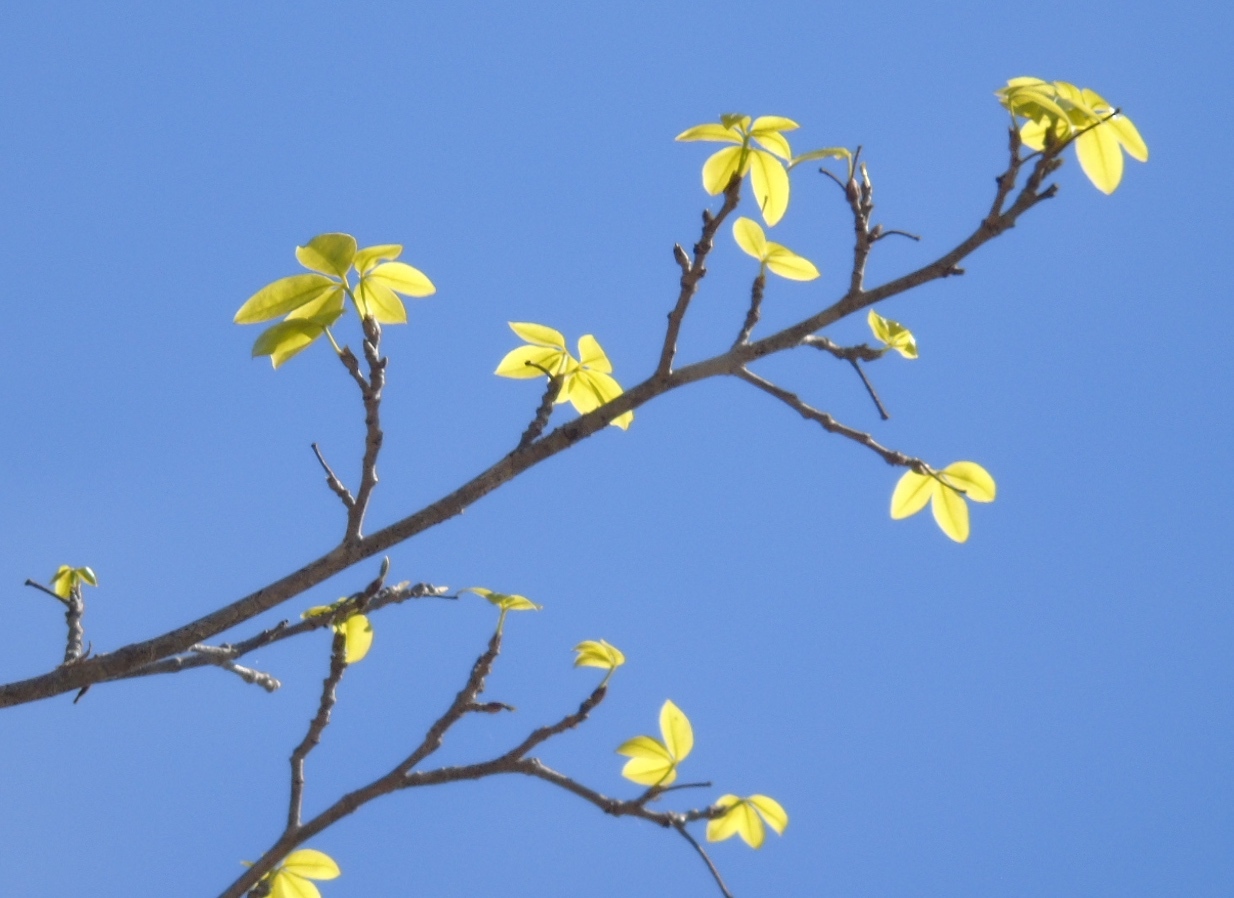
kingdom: Plantae
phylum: Tracheophyta
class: Magnoliopsida
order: Malpighiales
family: Picrodendraceae
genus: Piranhea
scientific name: Piranhea mexicana
